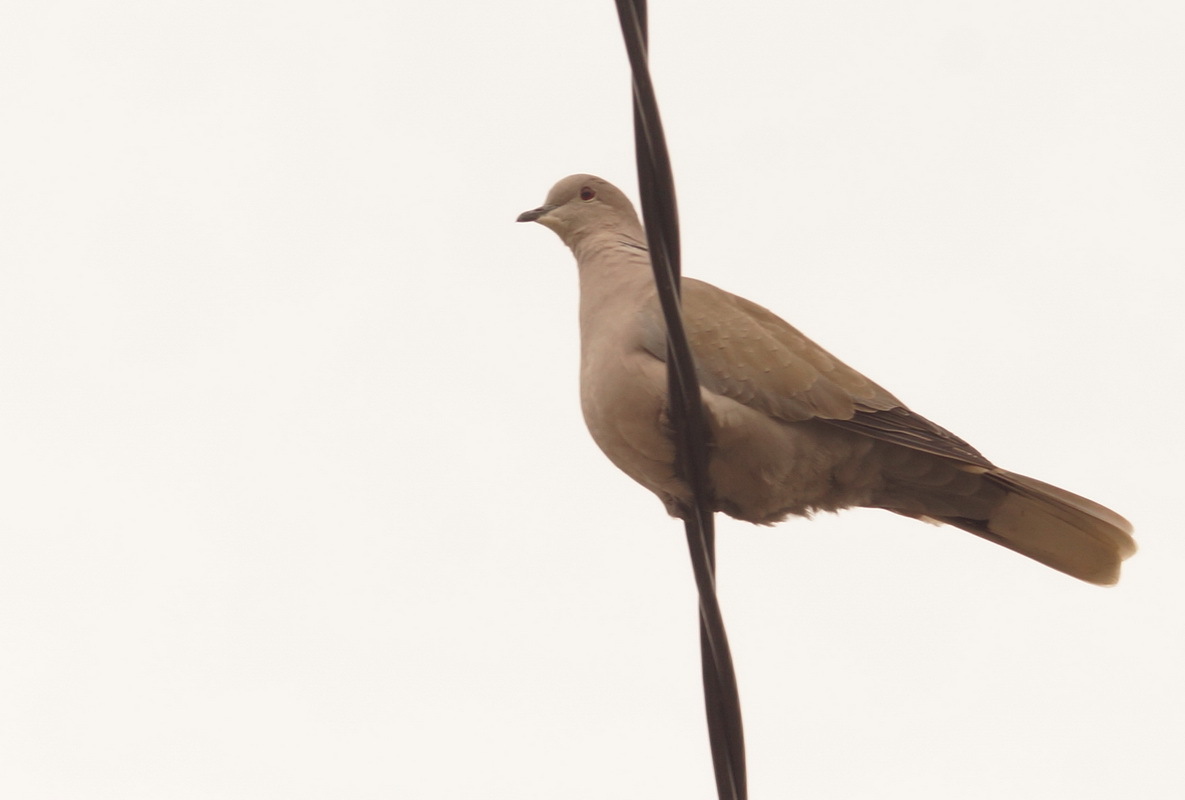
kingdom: Animalia
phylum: Chordata
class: Aves
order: Columbiformes
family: Columbidae
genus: Streptopelia
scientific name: Streptopelia decaocto
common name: Eurasian collared dove
